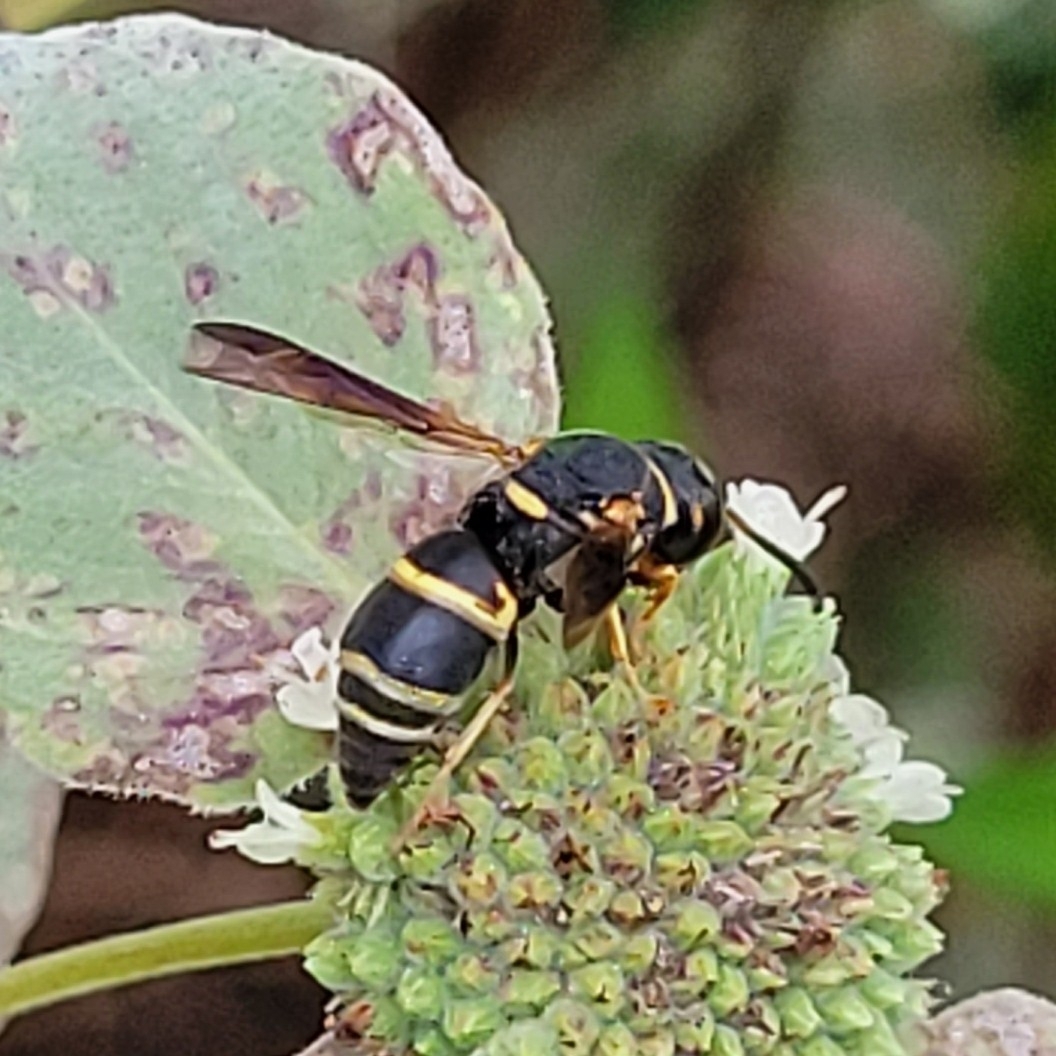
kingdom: Animalia
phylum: Arthropoda
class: Insecta
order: Hymenoptera
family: Eumenidae
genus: Euodynerus
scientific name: Euodynerus hidalgo
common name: Wasp
